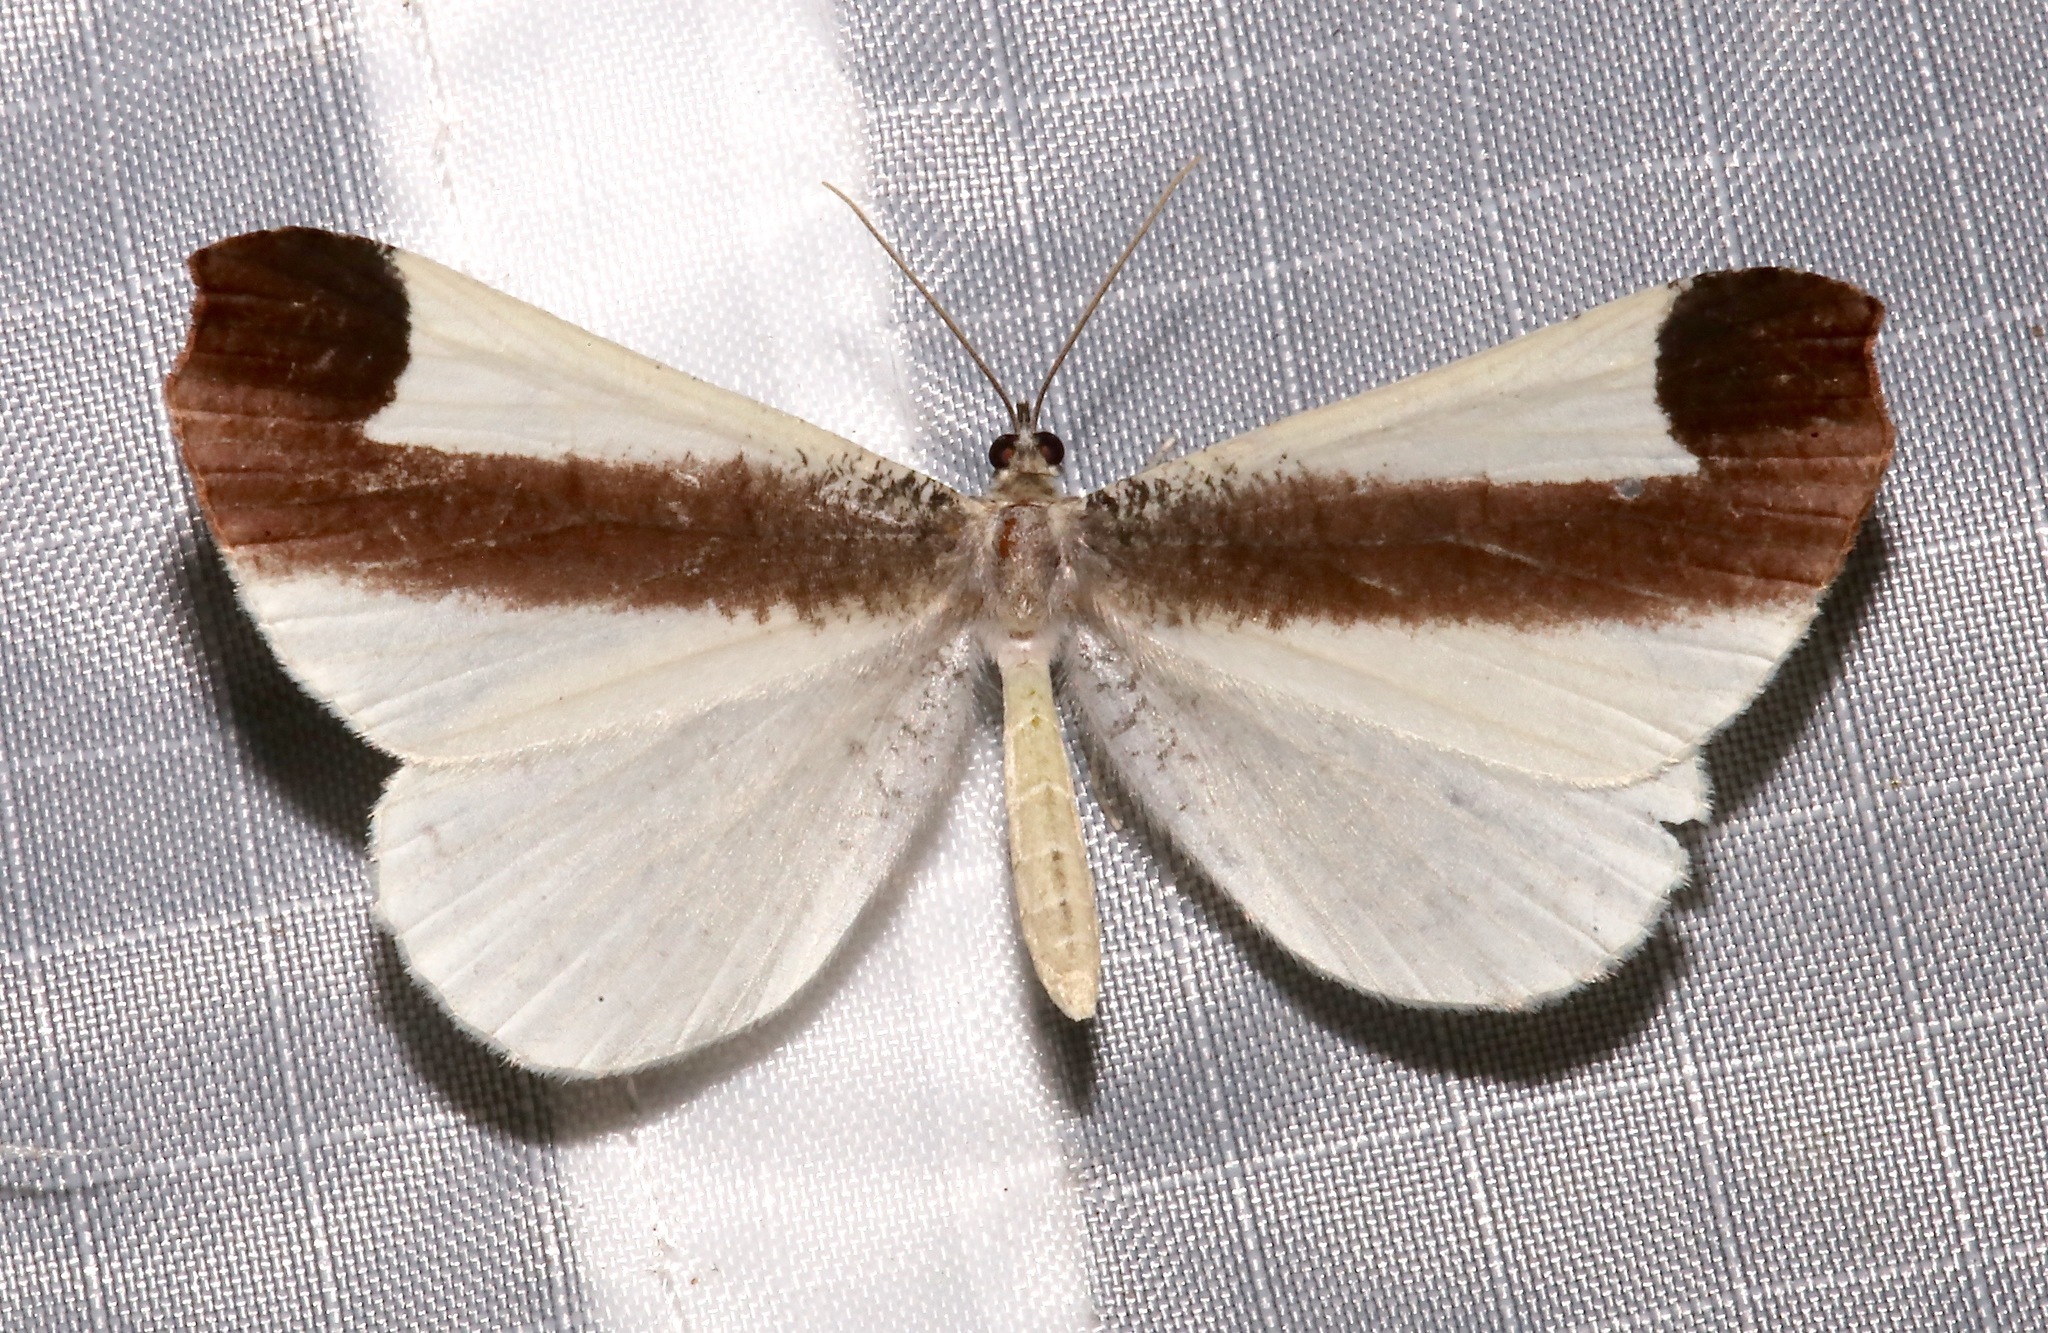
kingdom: Animalia
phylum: Arthropoda
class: Insecta
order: Lepidoptera
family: Hedylidae
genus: Macrosoma
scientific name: Macrosoma leucophasiata
